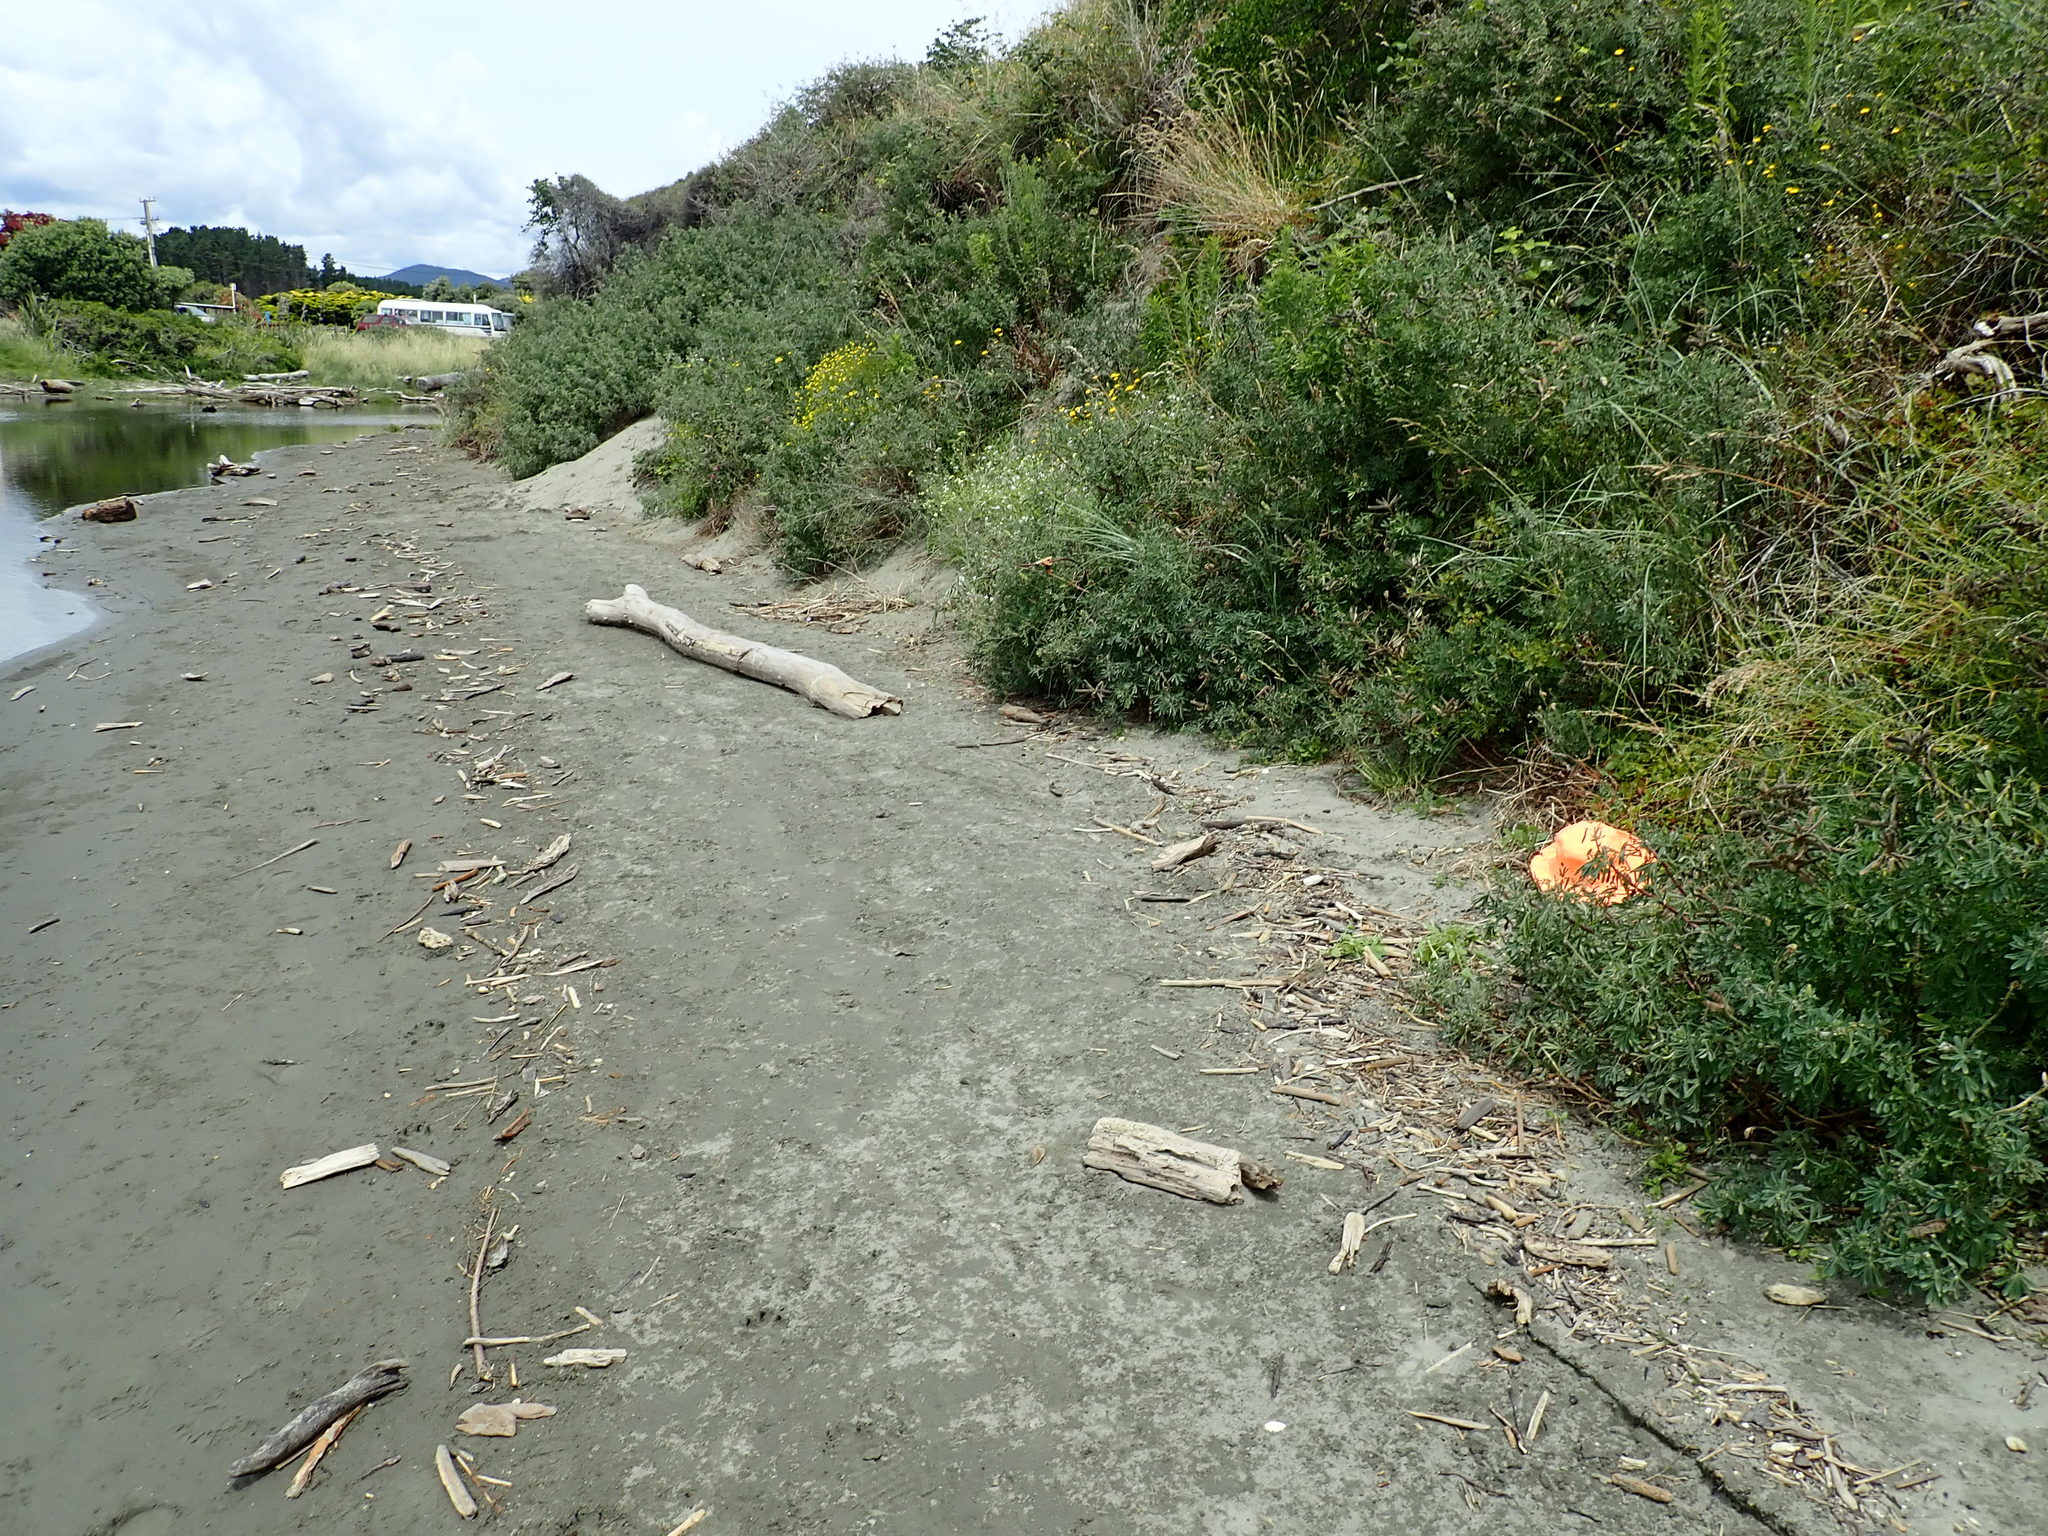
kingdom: Plantae
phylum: Tracheophyta
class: Magnoliopsida
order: Caryophyllales
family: Aizoaceae
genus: Tetragonia
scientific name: Tetragonia implexicoma
